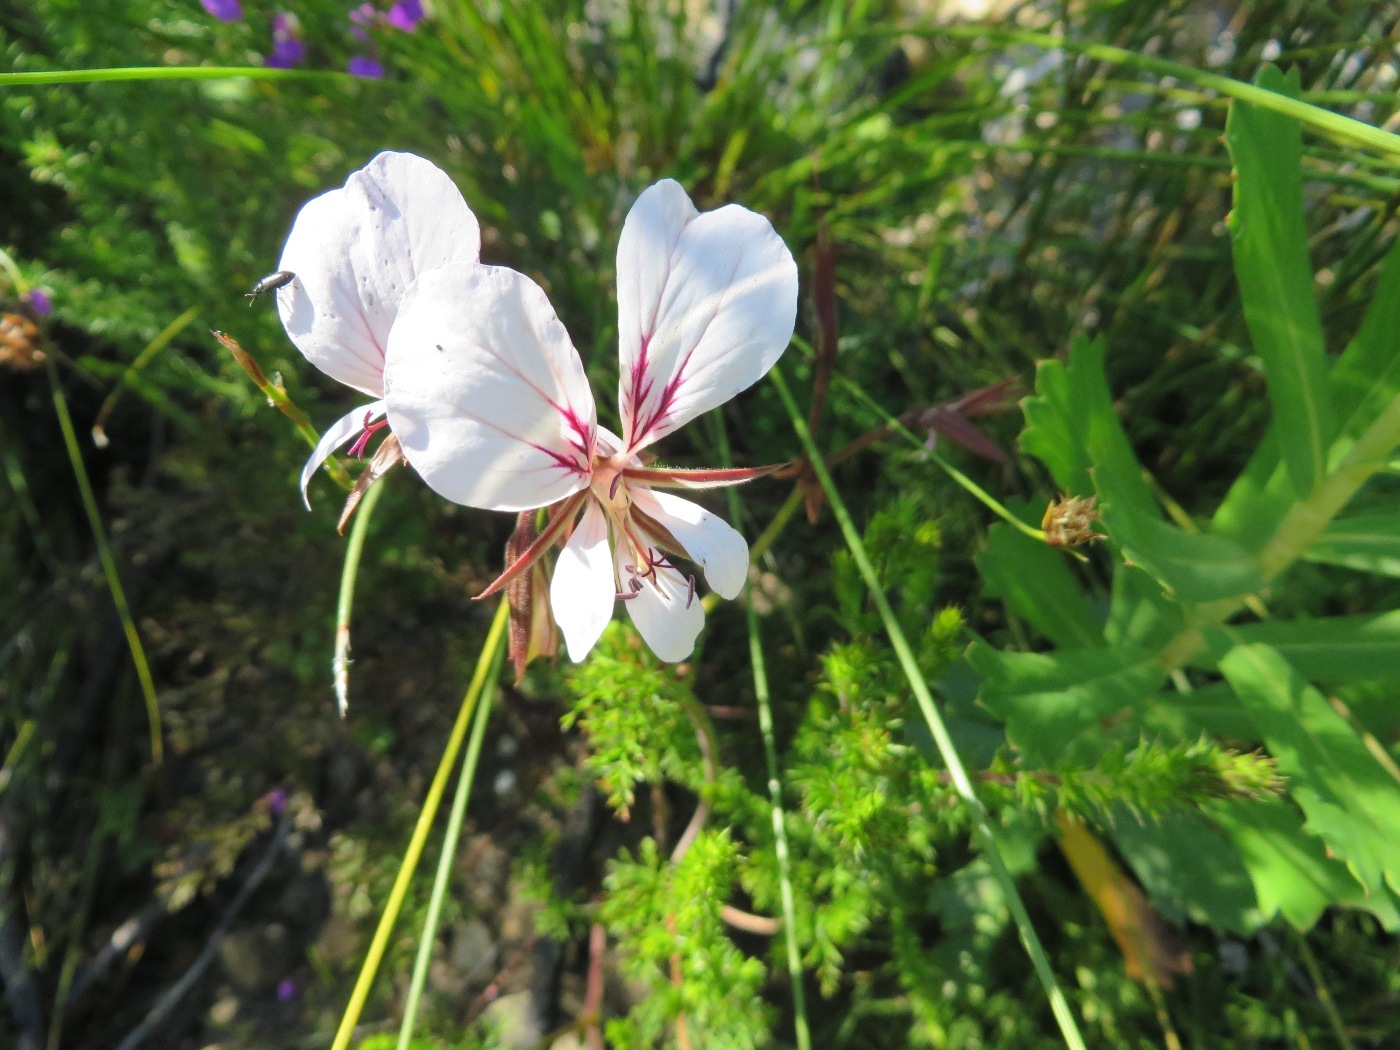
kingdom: Plantae
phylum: Tracheophyta
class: Magnoliopsida
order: Geraniales
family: Geraniaceae
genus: Pelargonium
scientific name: Pelargonium myrrhifolium
